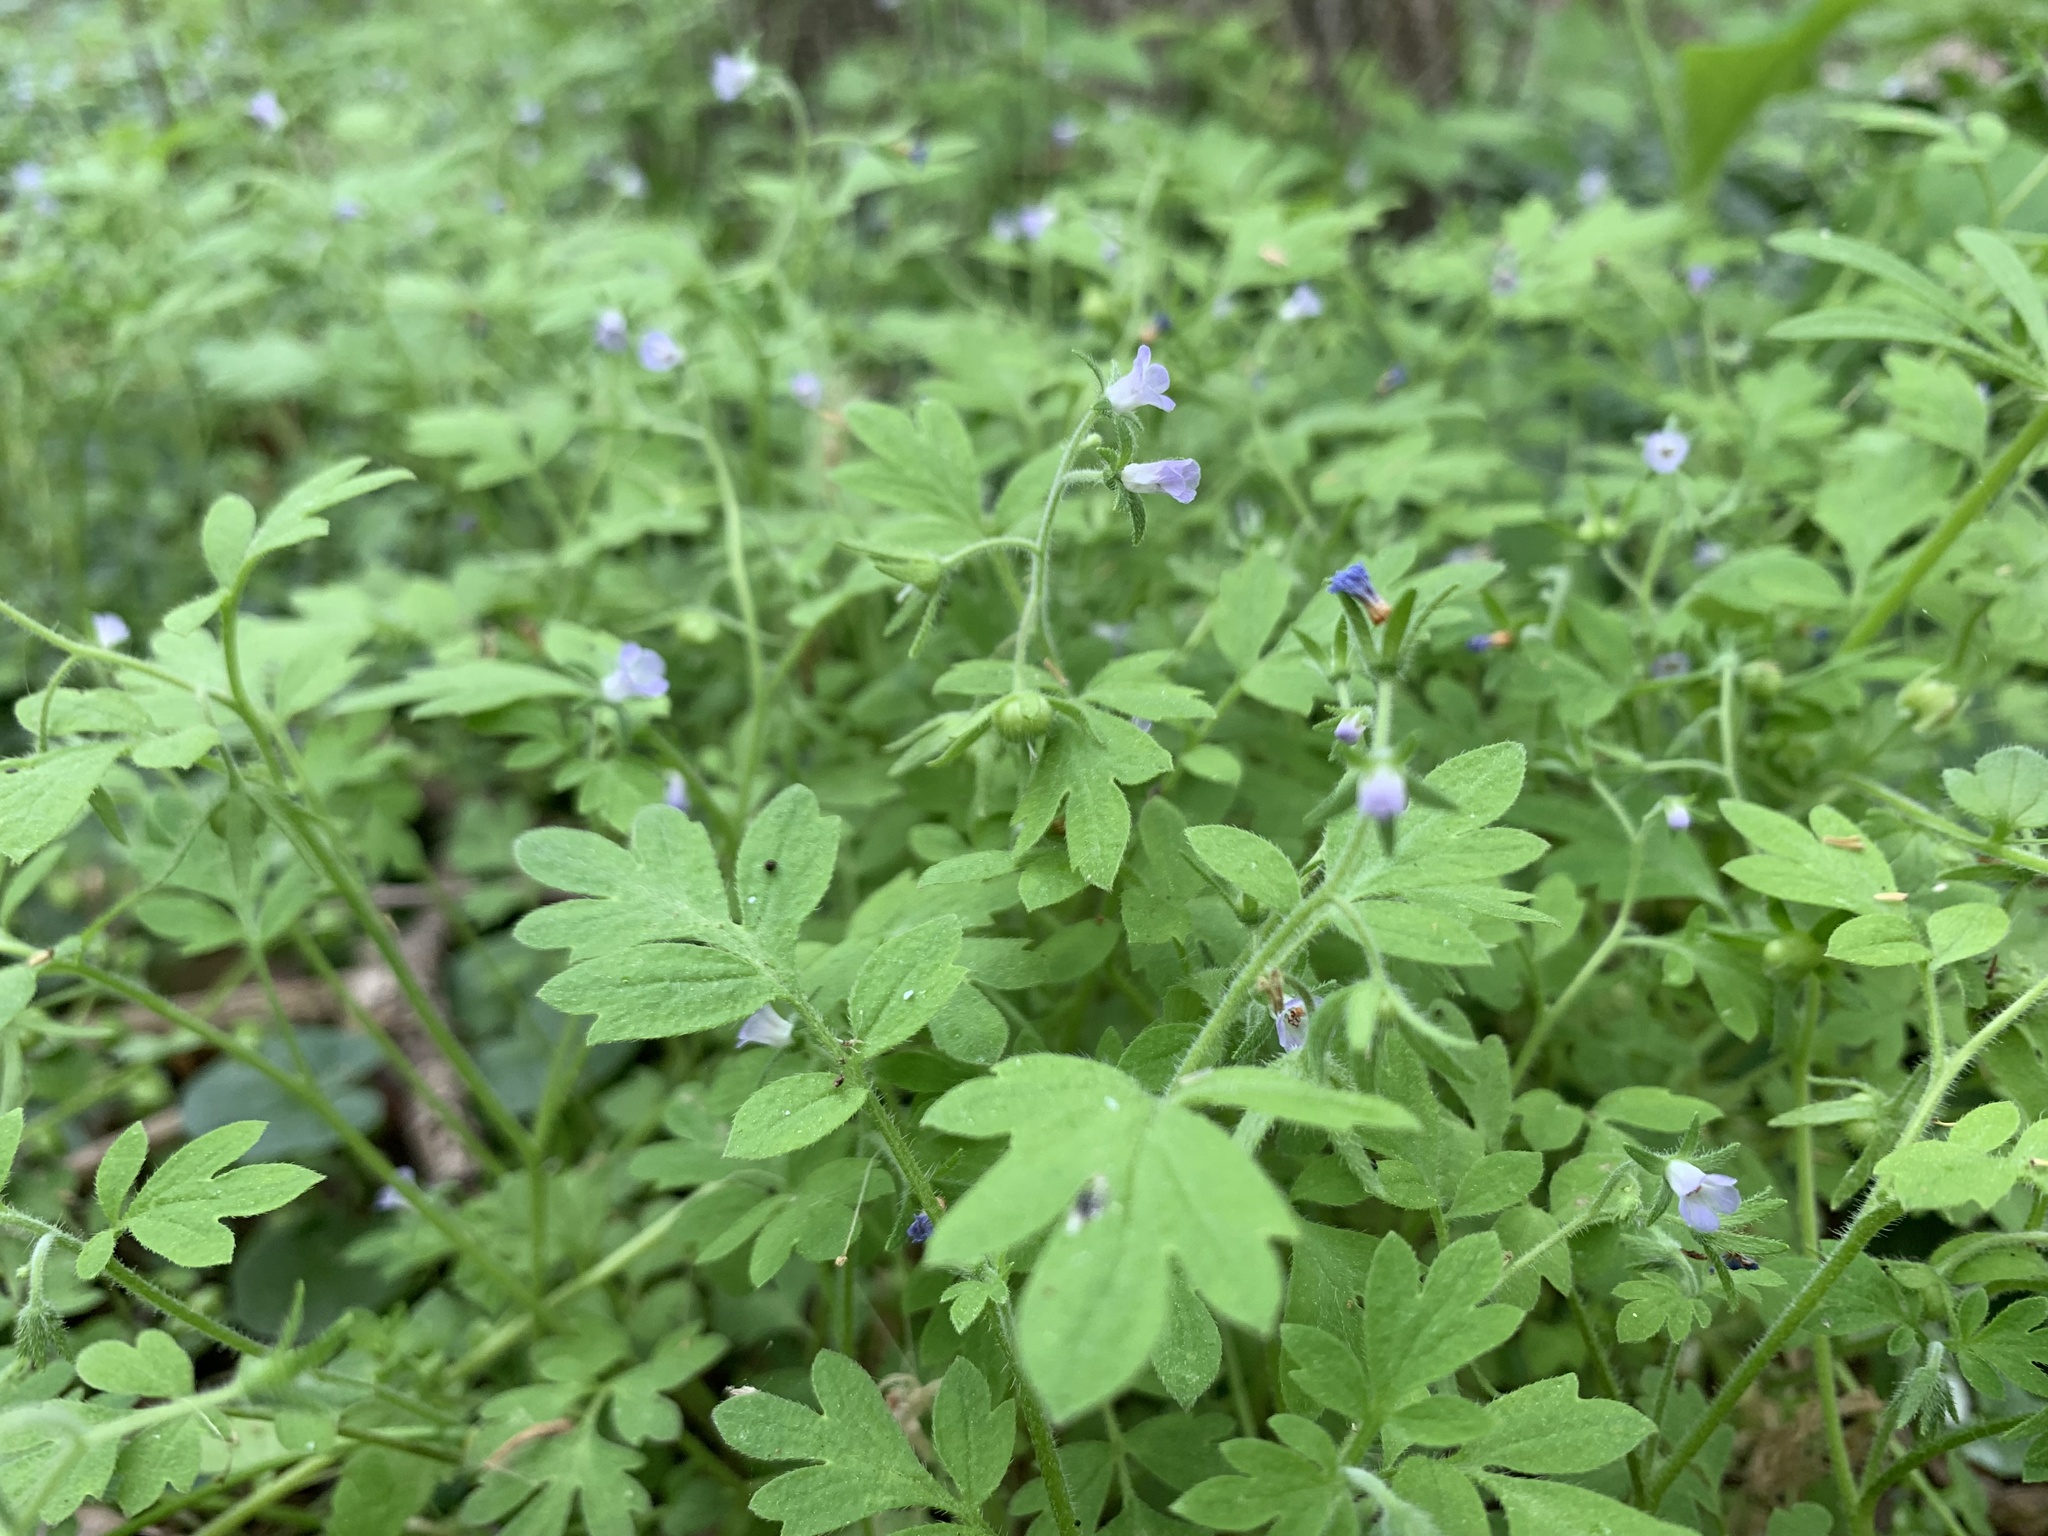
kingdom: Plantae
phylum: Tracheophyta
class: Magnoliopsida
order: Boraginales
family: Hydrophyllaceae
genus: Phacelia
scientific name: Phacelia covillei
